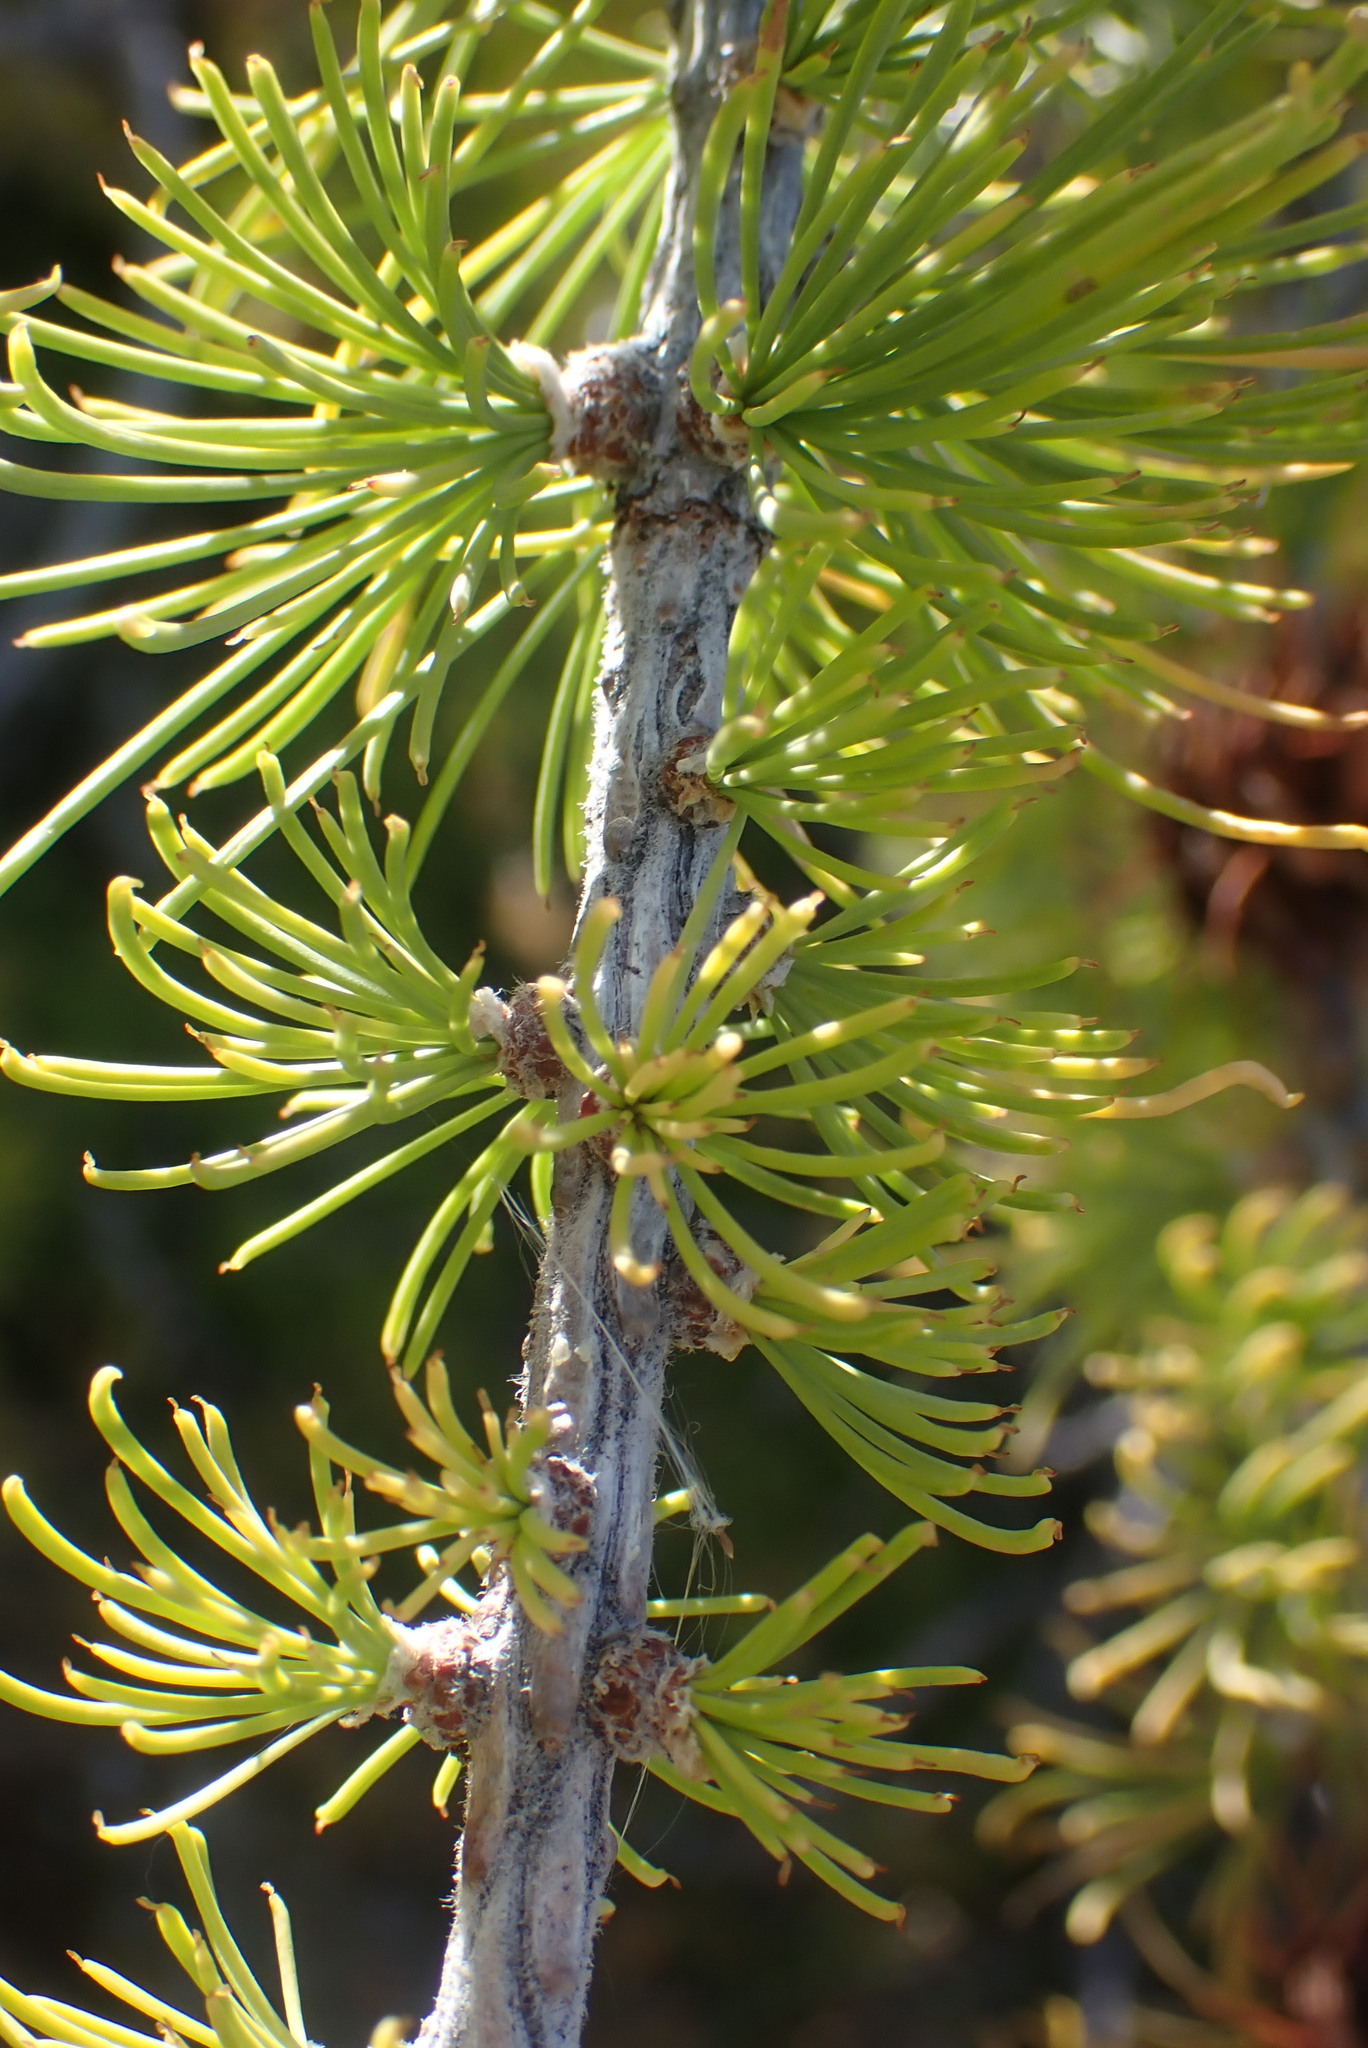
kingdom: Plantae
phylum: Tracheophyta
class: Pinopsida
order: Pinales
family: Pinaceae
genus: Larix
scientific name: Larix lyallii
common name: Alpine larch
